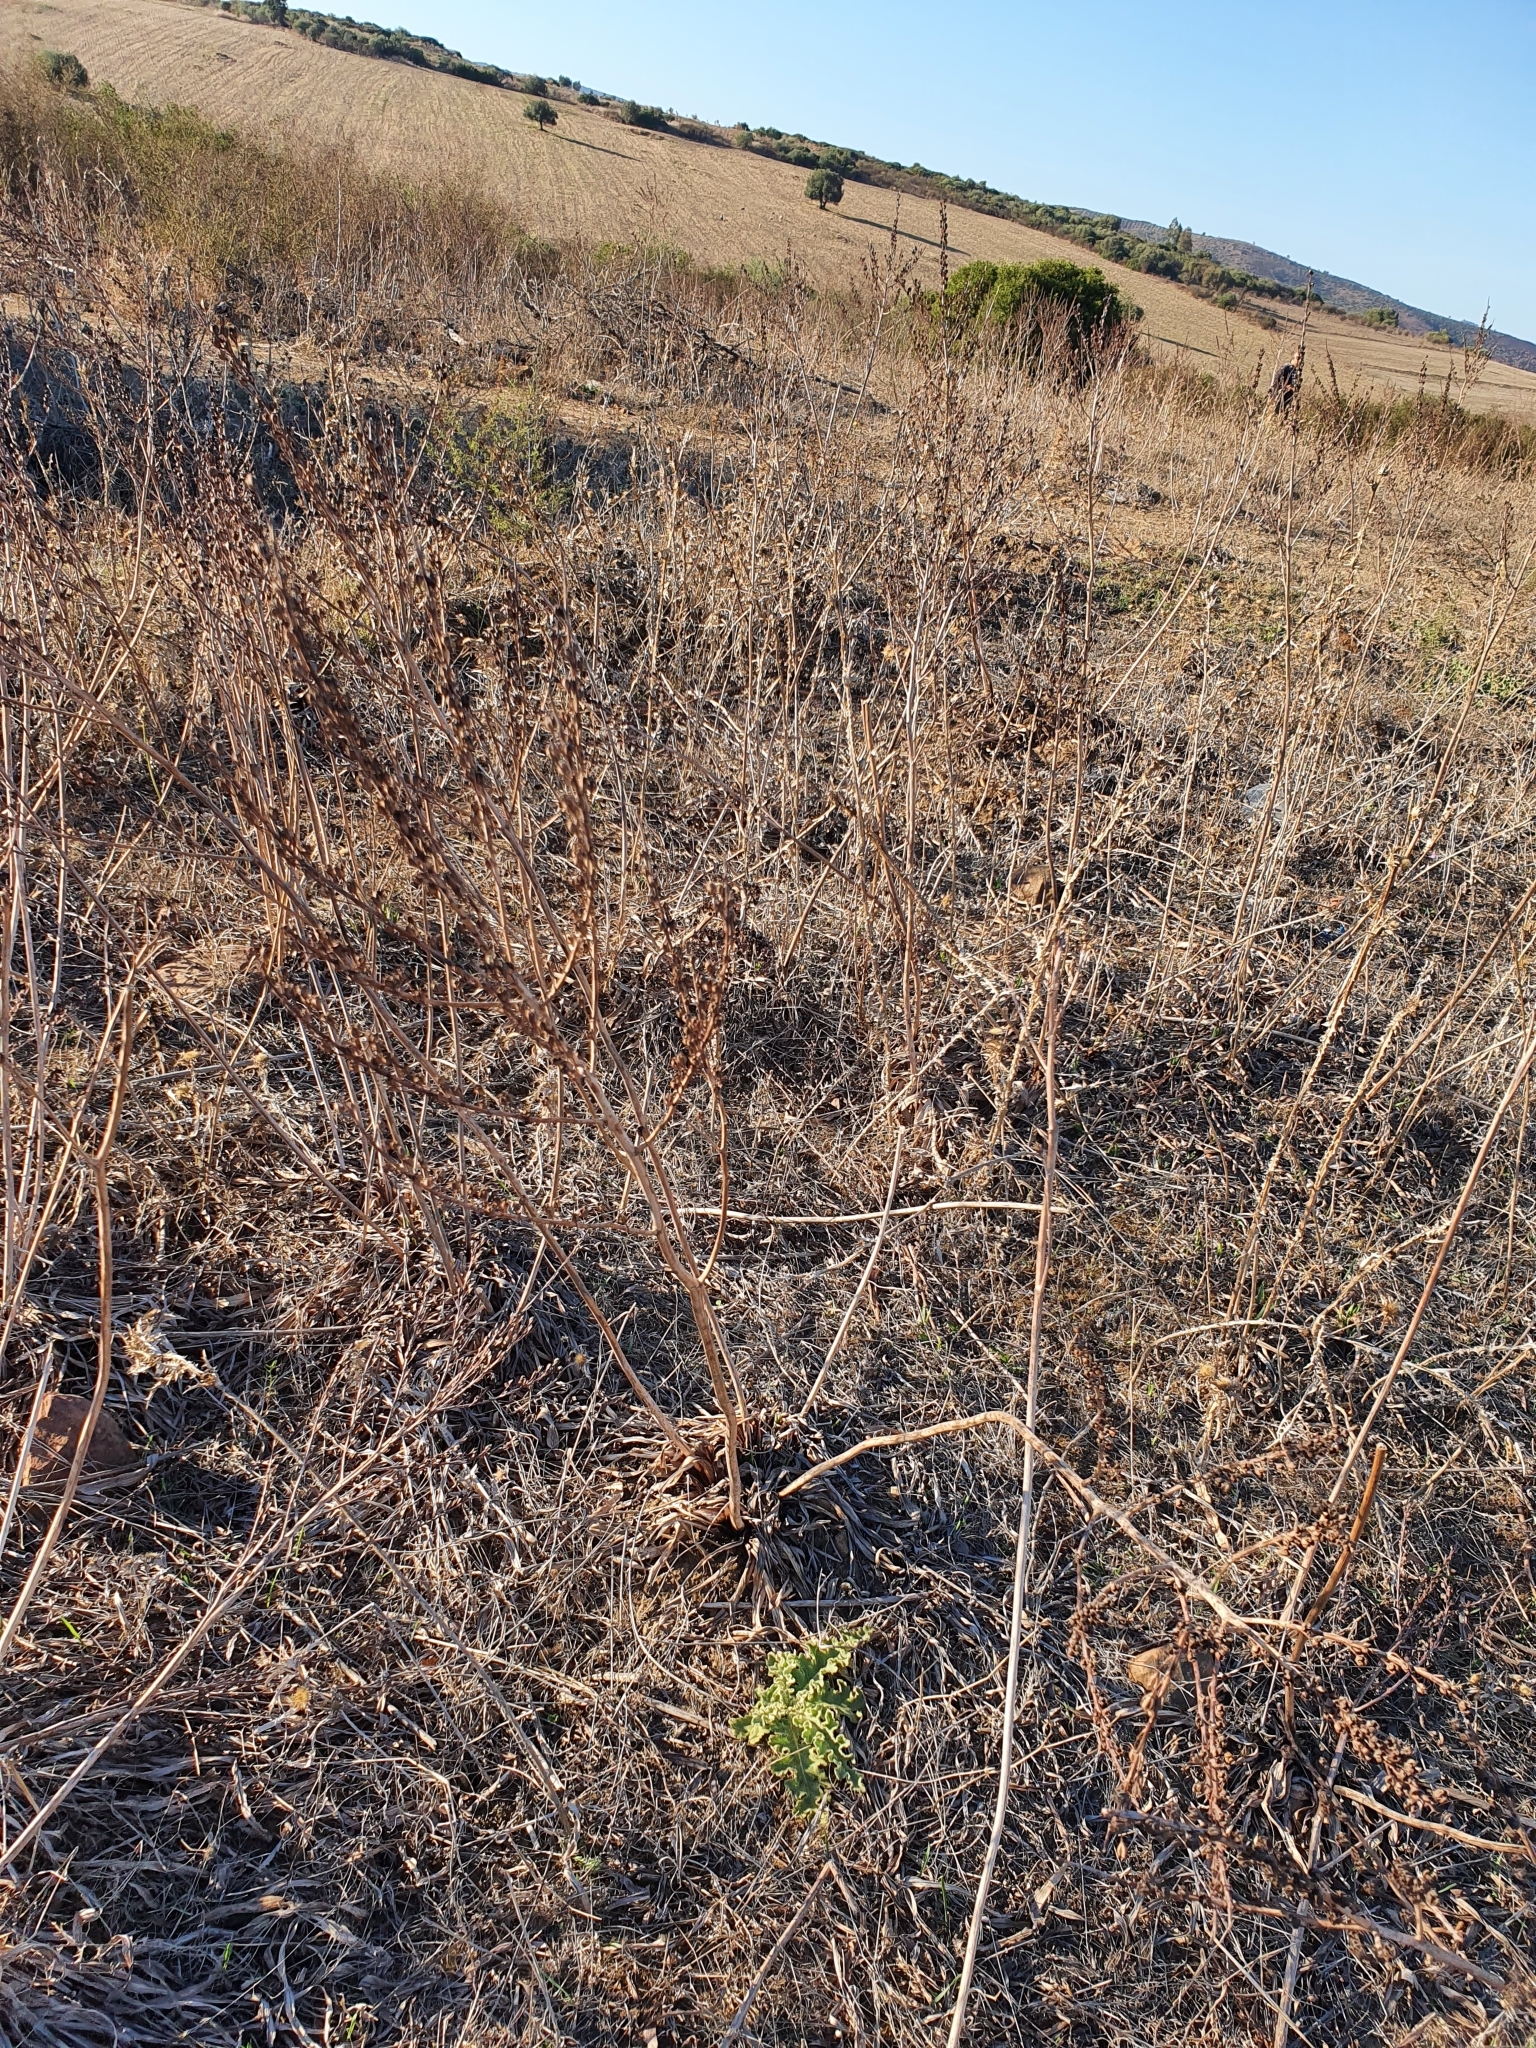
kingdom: Plantae
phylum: Tracheophyta
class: Liliopsida
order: Asparagales
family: Asphodelaceae
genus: Asphodelus
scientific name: Asphodelus ramosus
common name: Silverrod
